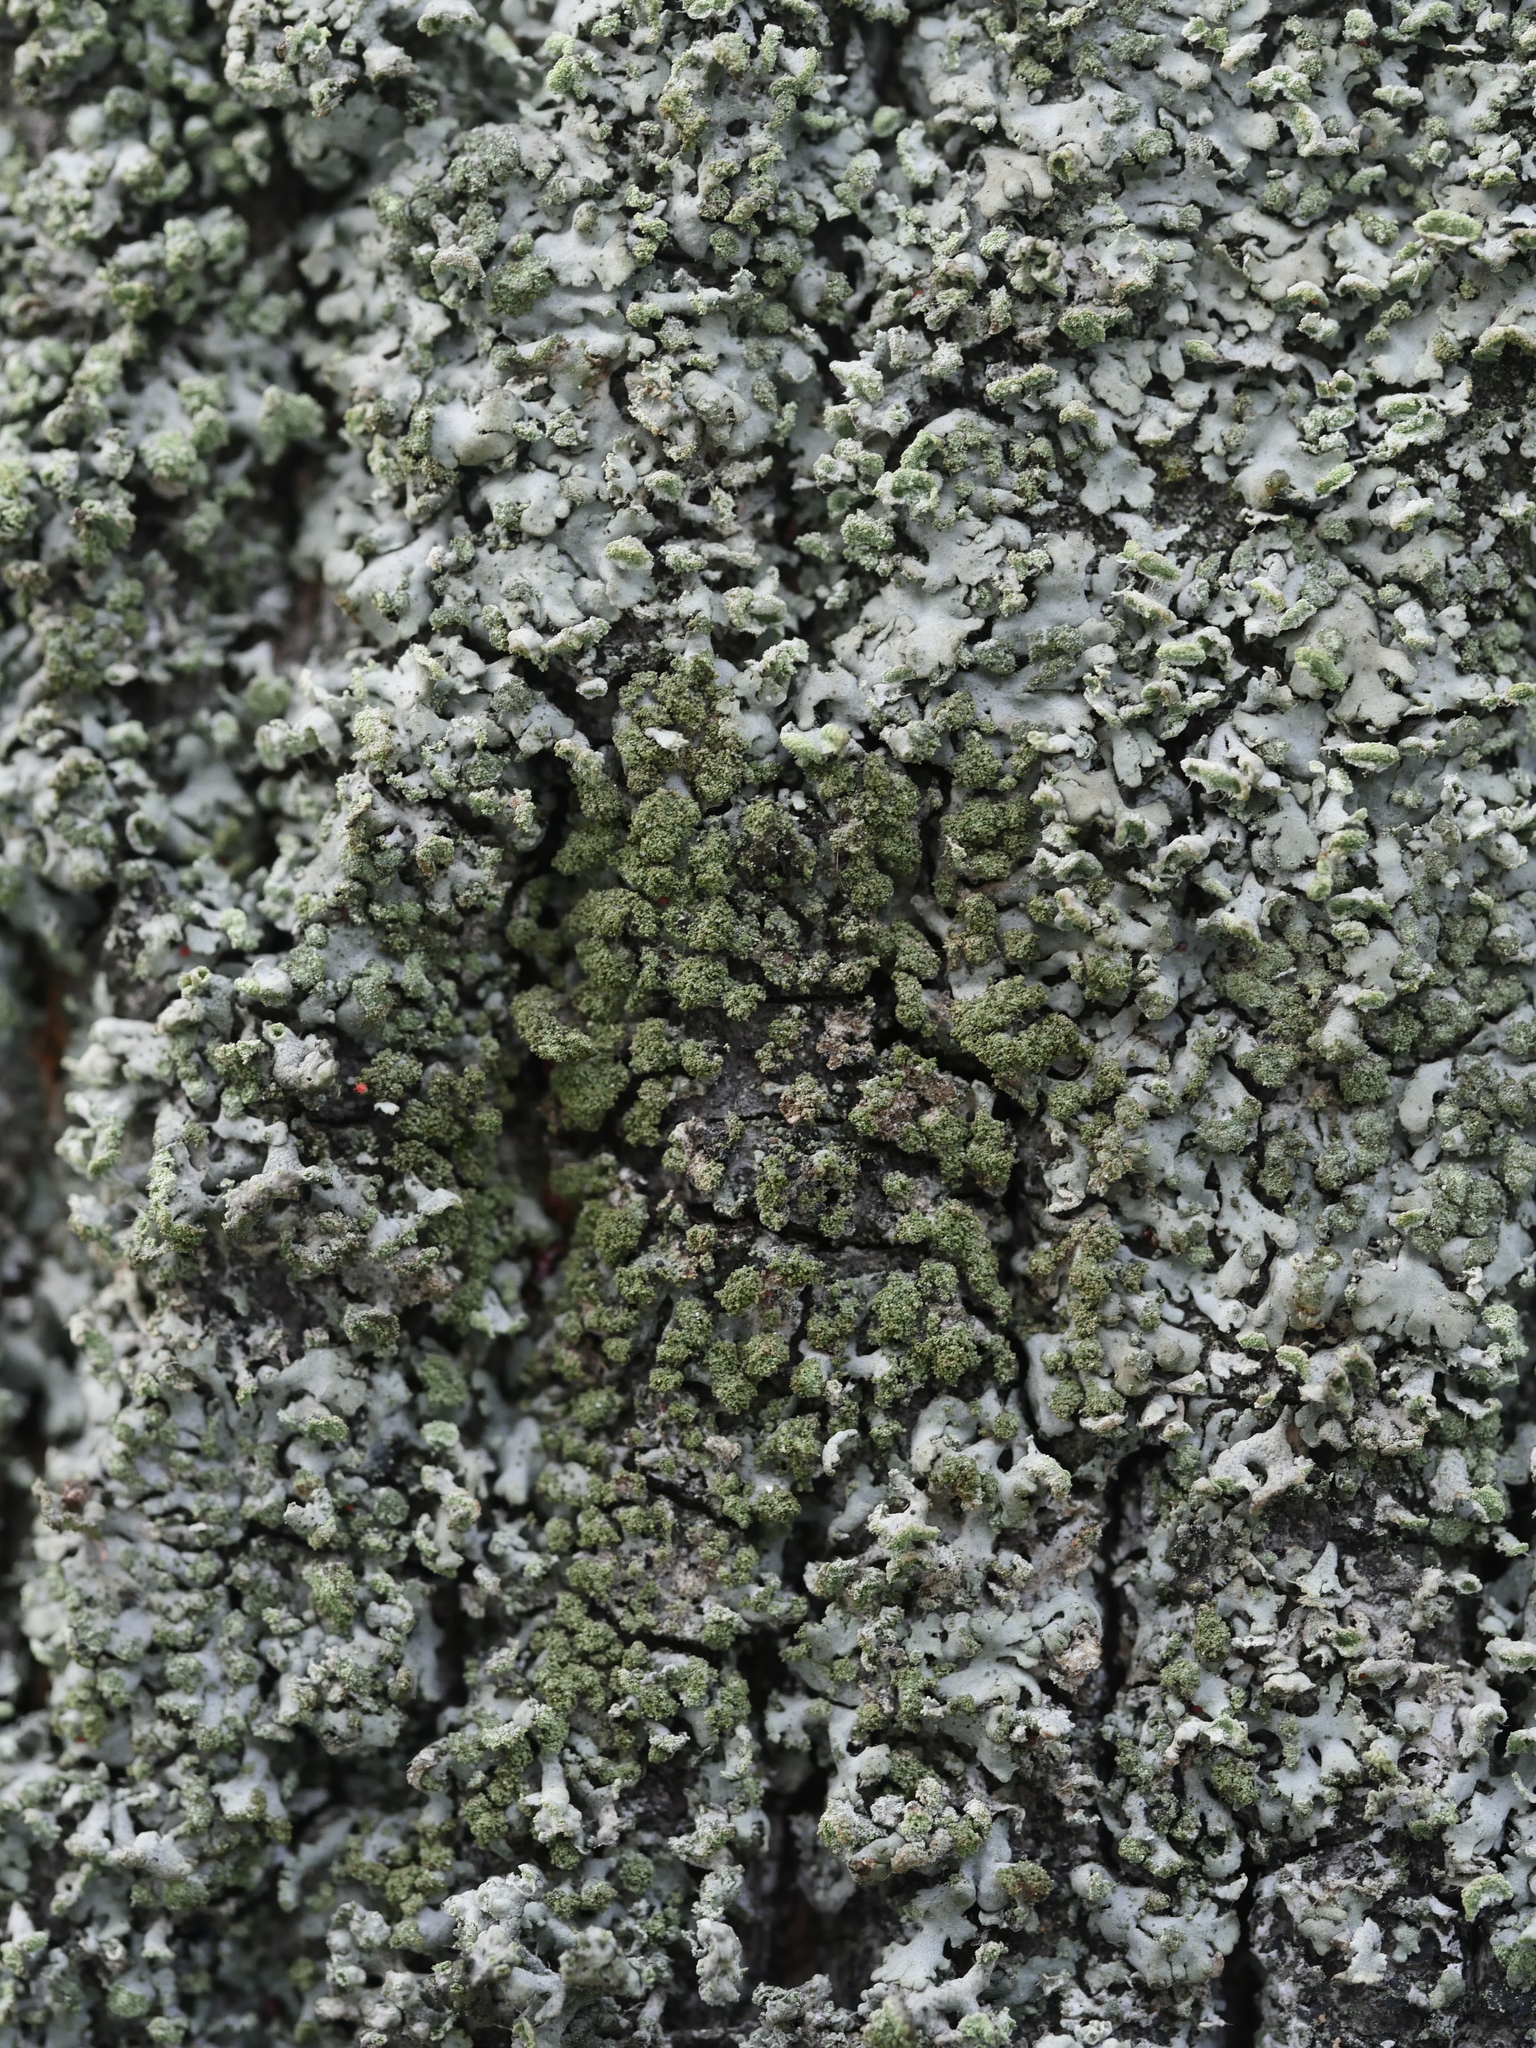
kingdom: Fungi
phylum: Ascomycota
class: Lecanoromycetes
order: Caliciales
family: Physciaceae
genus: Phaeophyscia
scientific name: Phaeophyscia orbicularis
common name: Mealy shadow lichen
